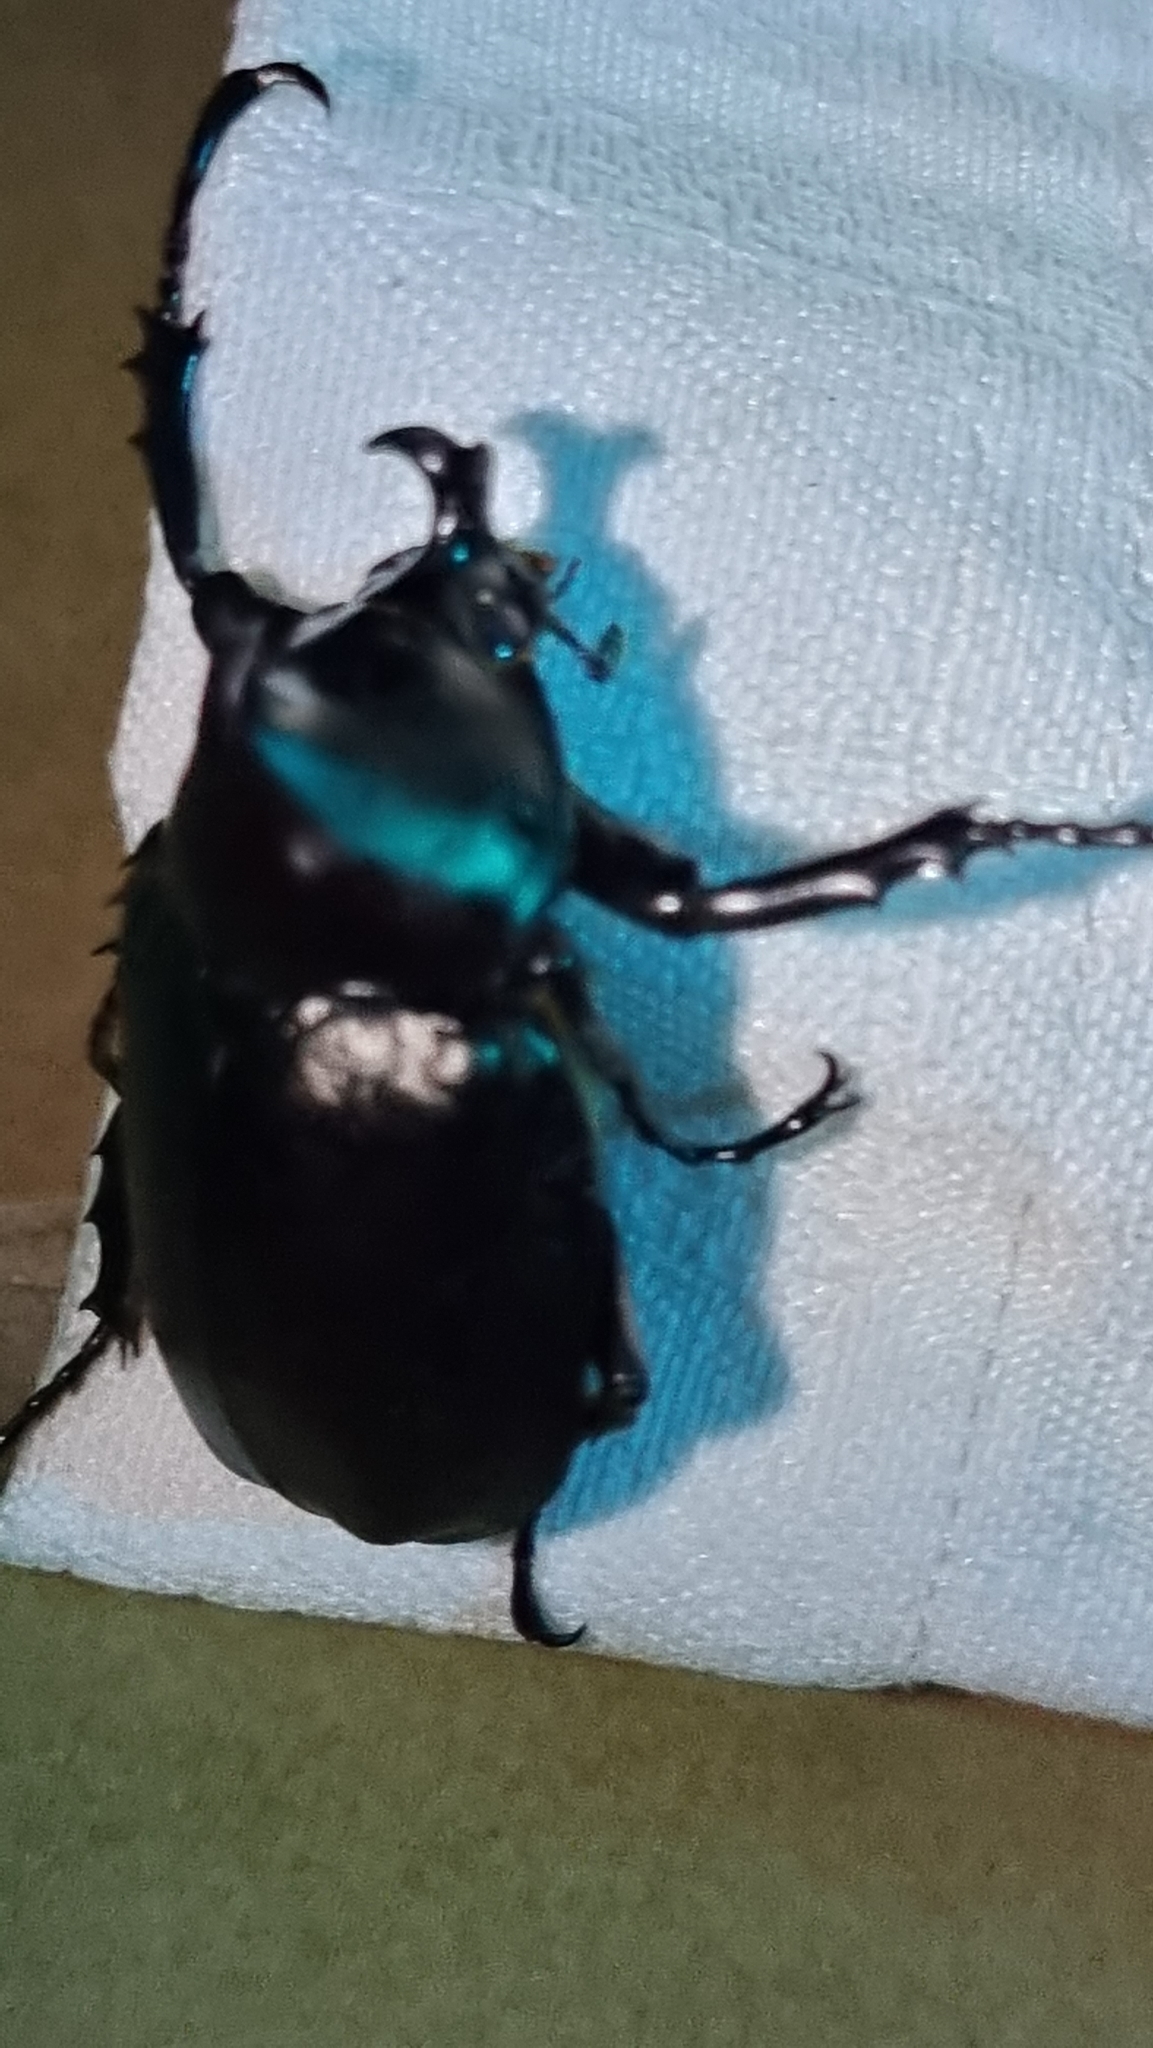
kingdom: Animalia
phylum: Arthropoda
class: Insecta
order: Coleoptera
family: Scarabaeidae
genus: Xylotrupes
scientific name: Xylotrupes australicus
